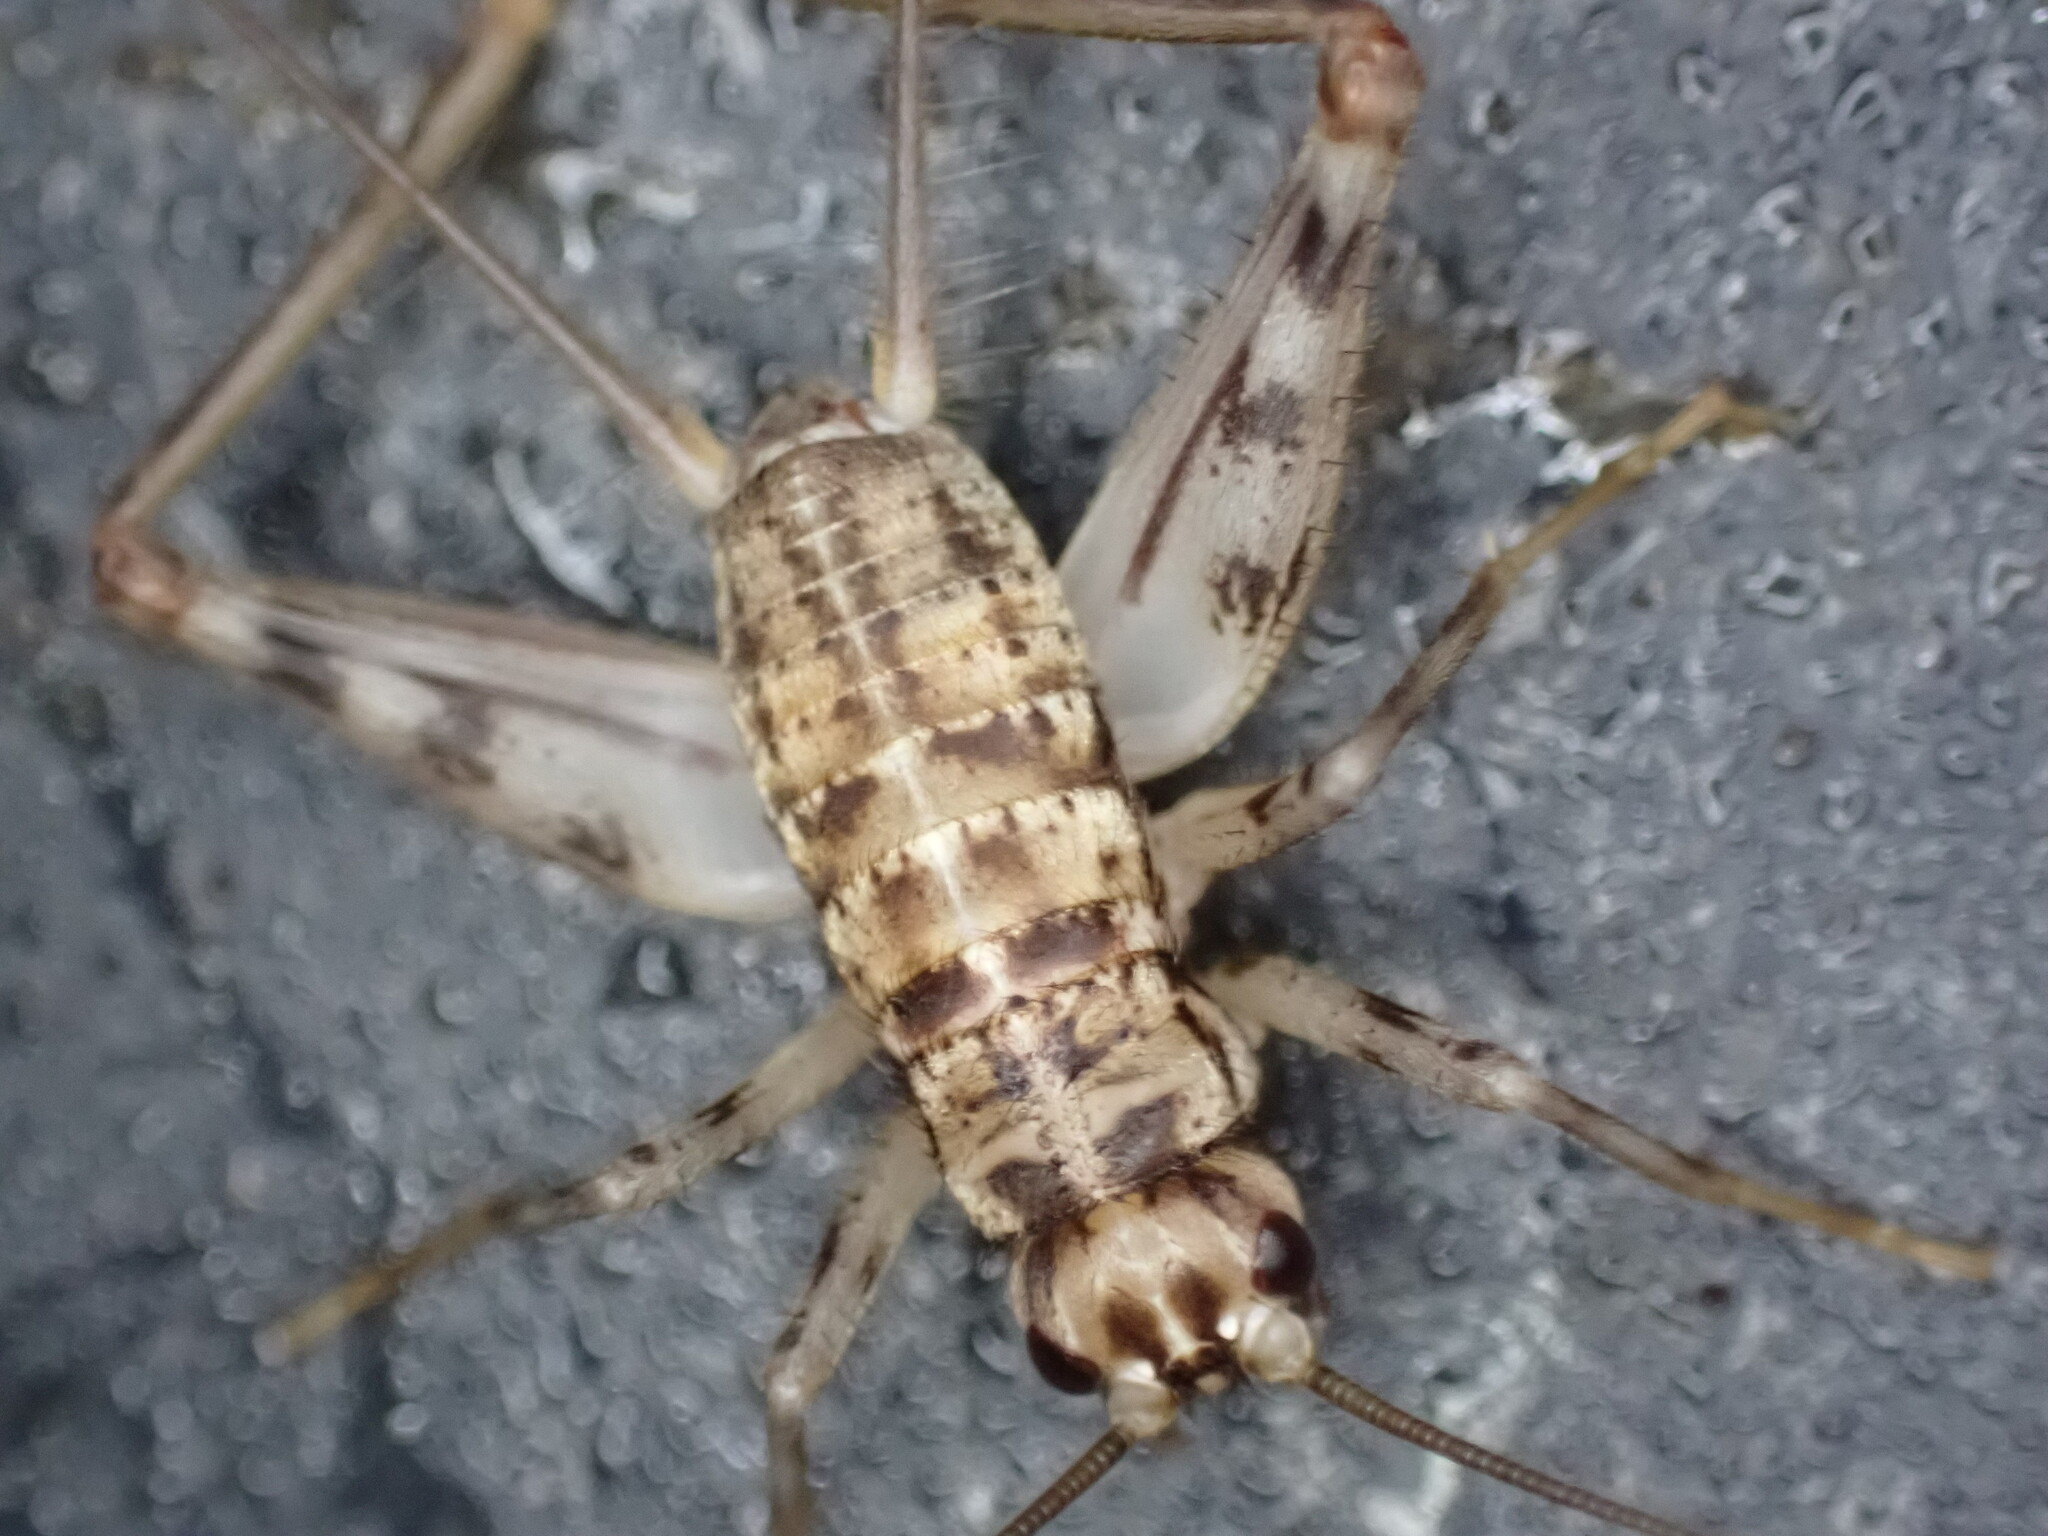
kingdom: Animalia
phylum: Arthropoda
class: Insecta
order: Orthoptera
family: Gryllidae
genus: Gryllomorpha
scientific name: Gryllomorpha dalmatina
